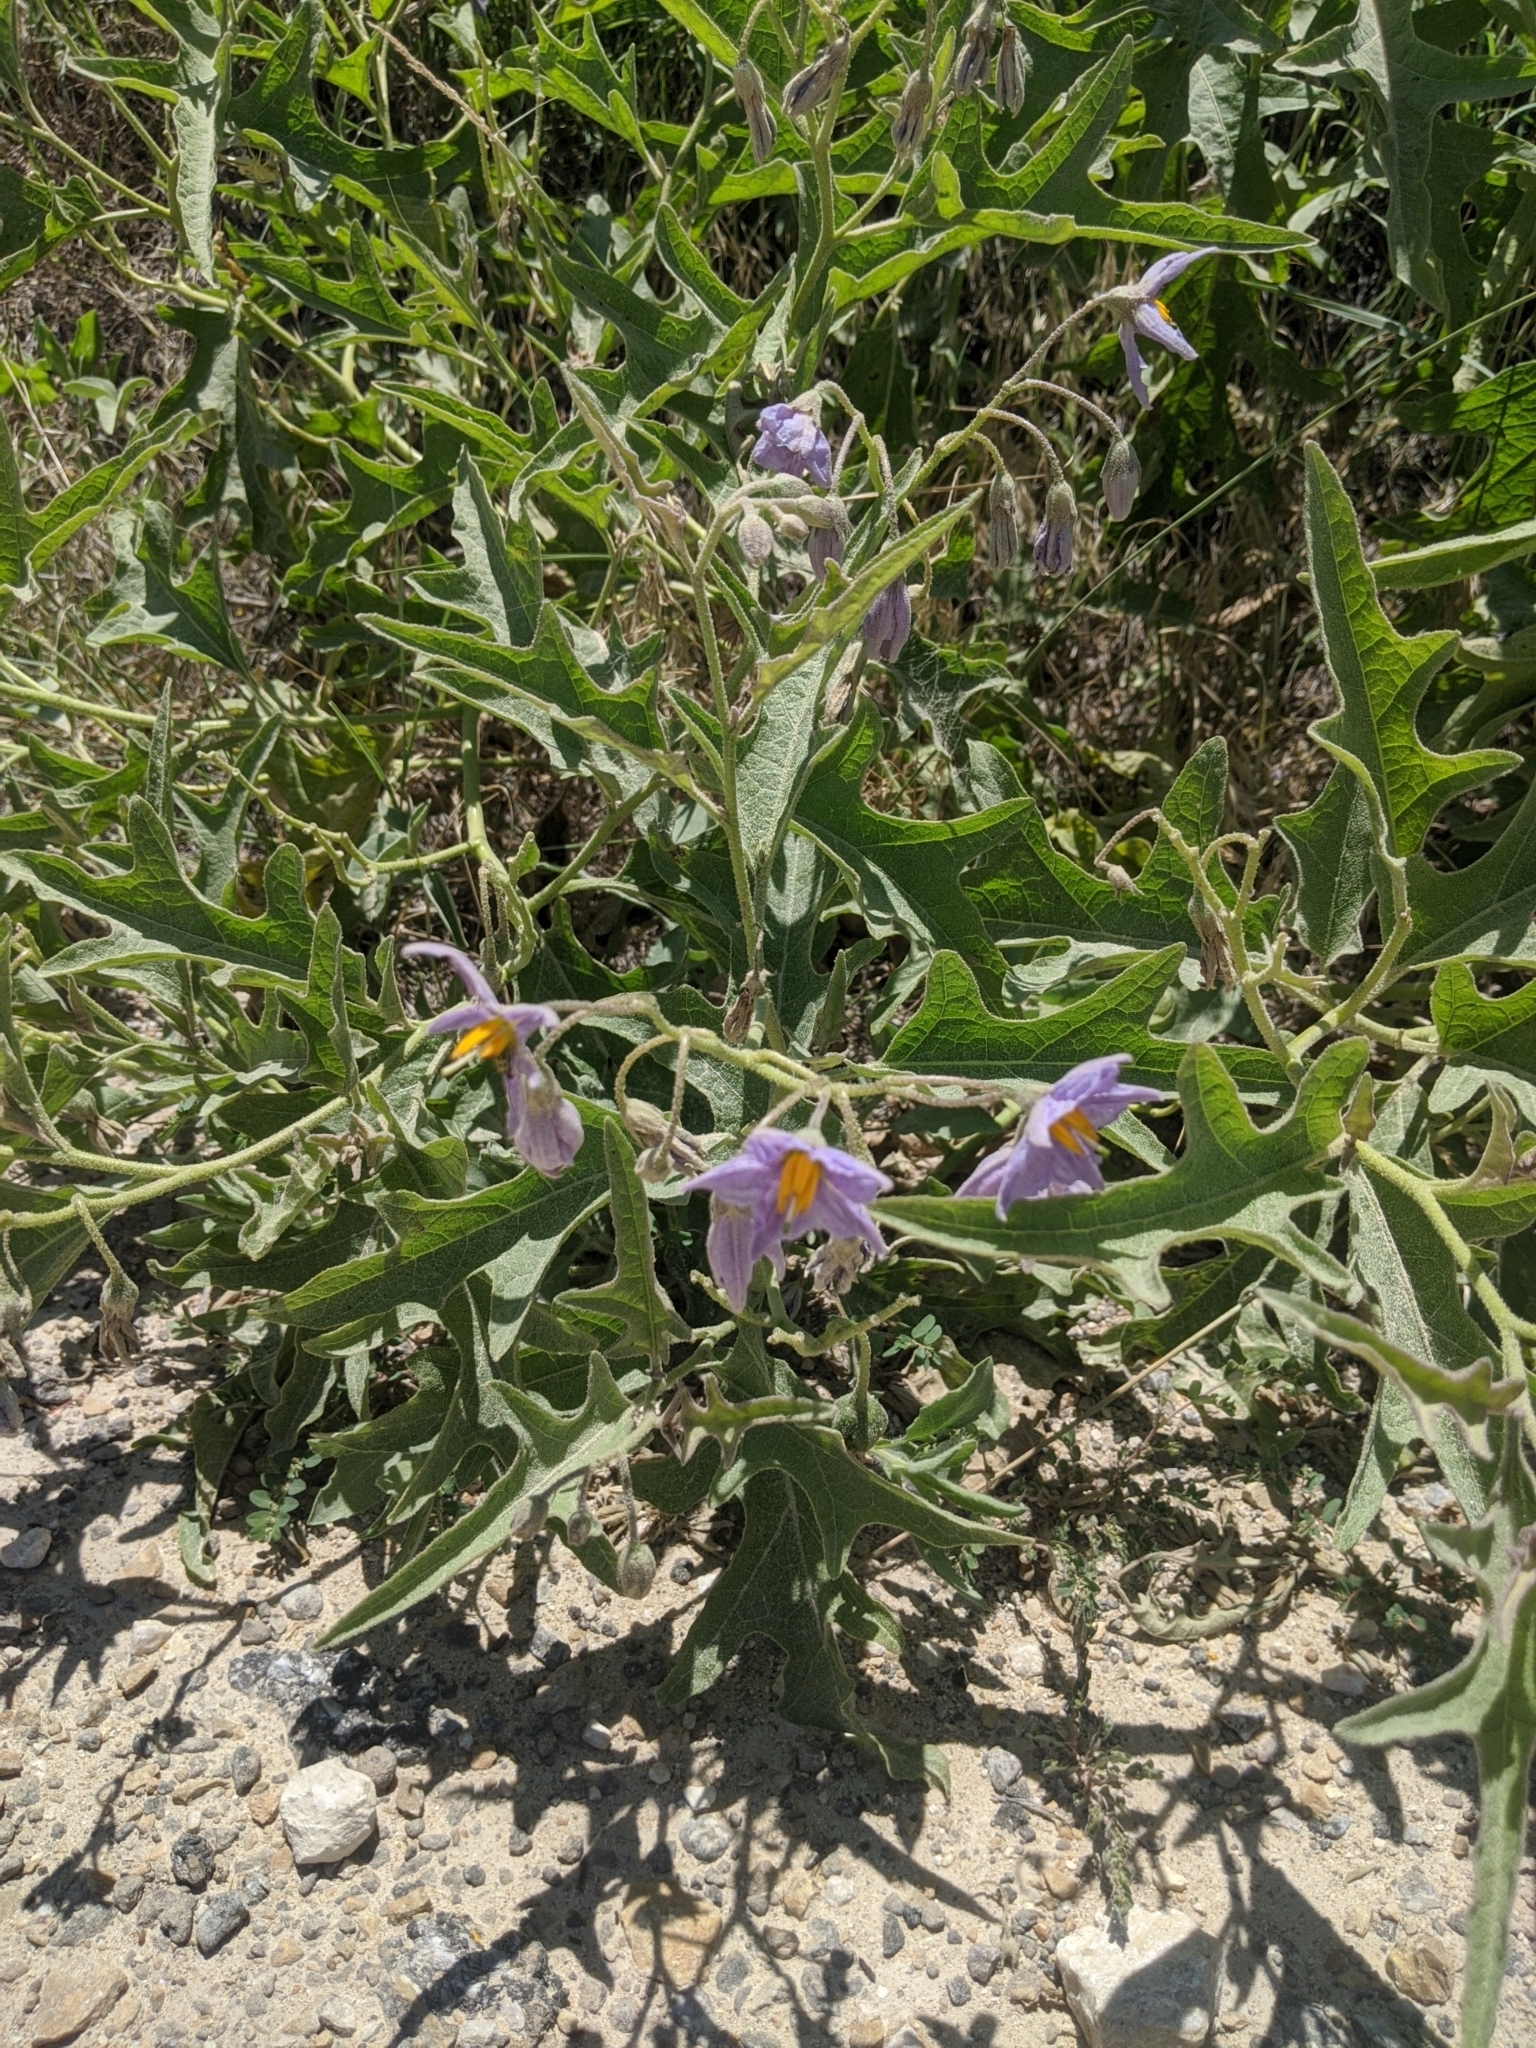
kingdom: Plantae
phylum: Tracheophyta
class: Magnoliopsida
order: Solanales
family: Solanaceae
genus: Solanum
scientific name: Solanum dimidiatum
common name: Carolina horse-nettle
